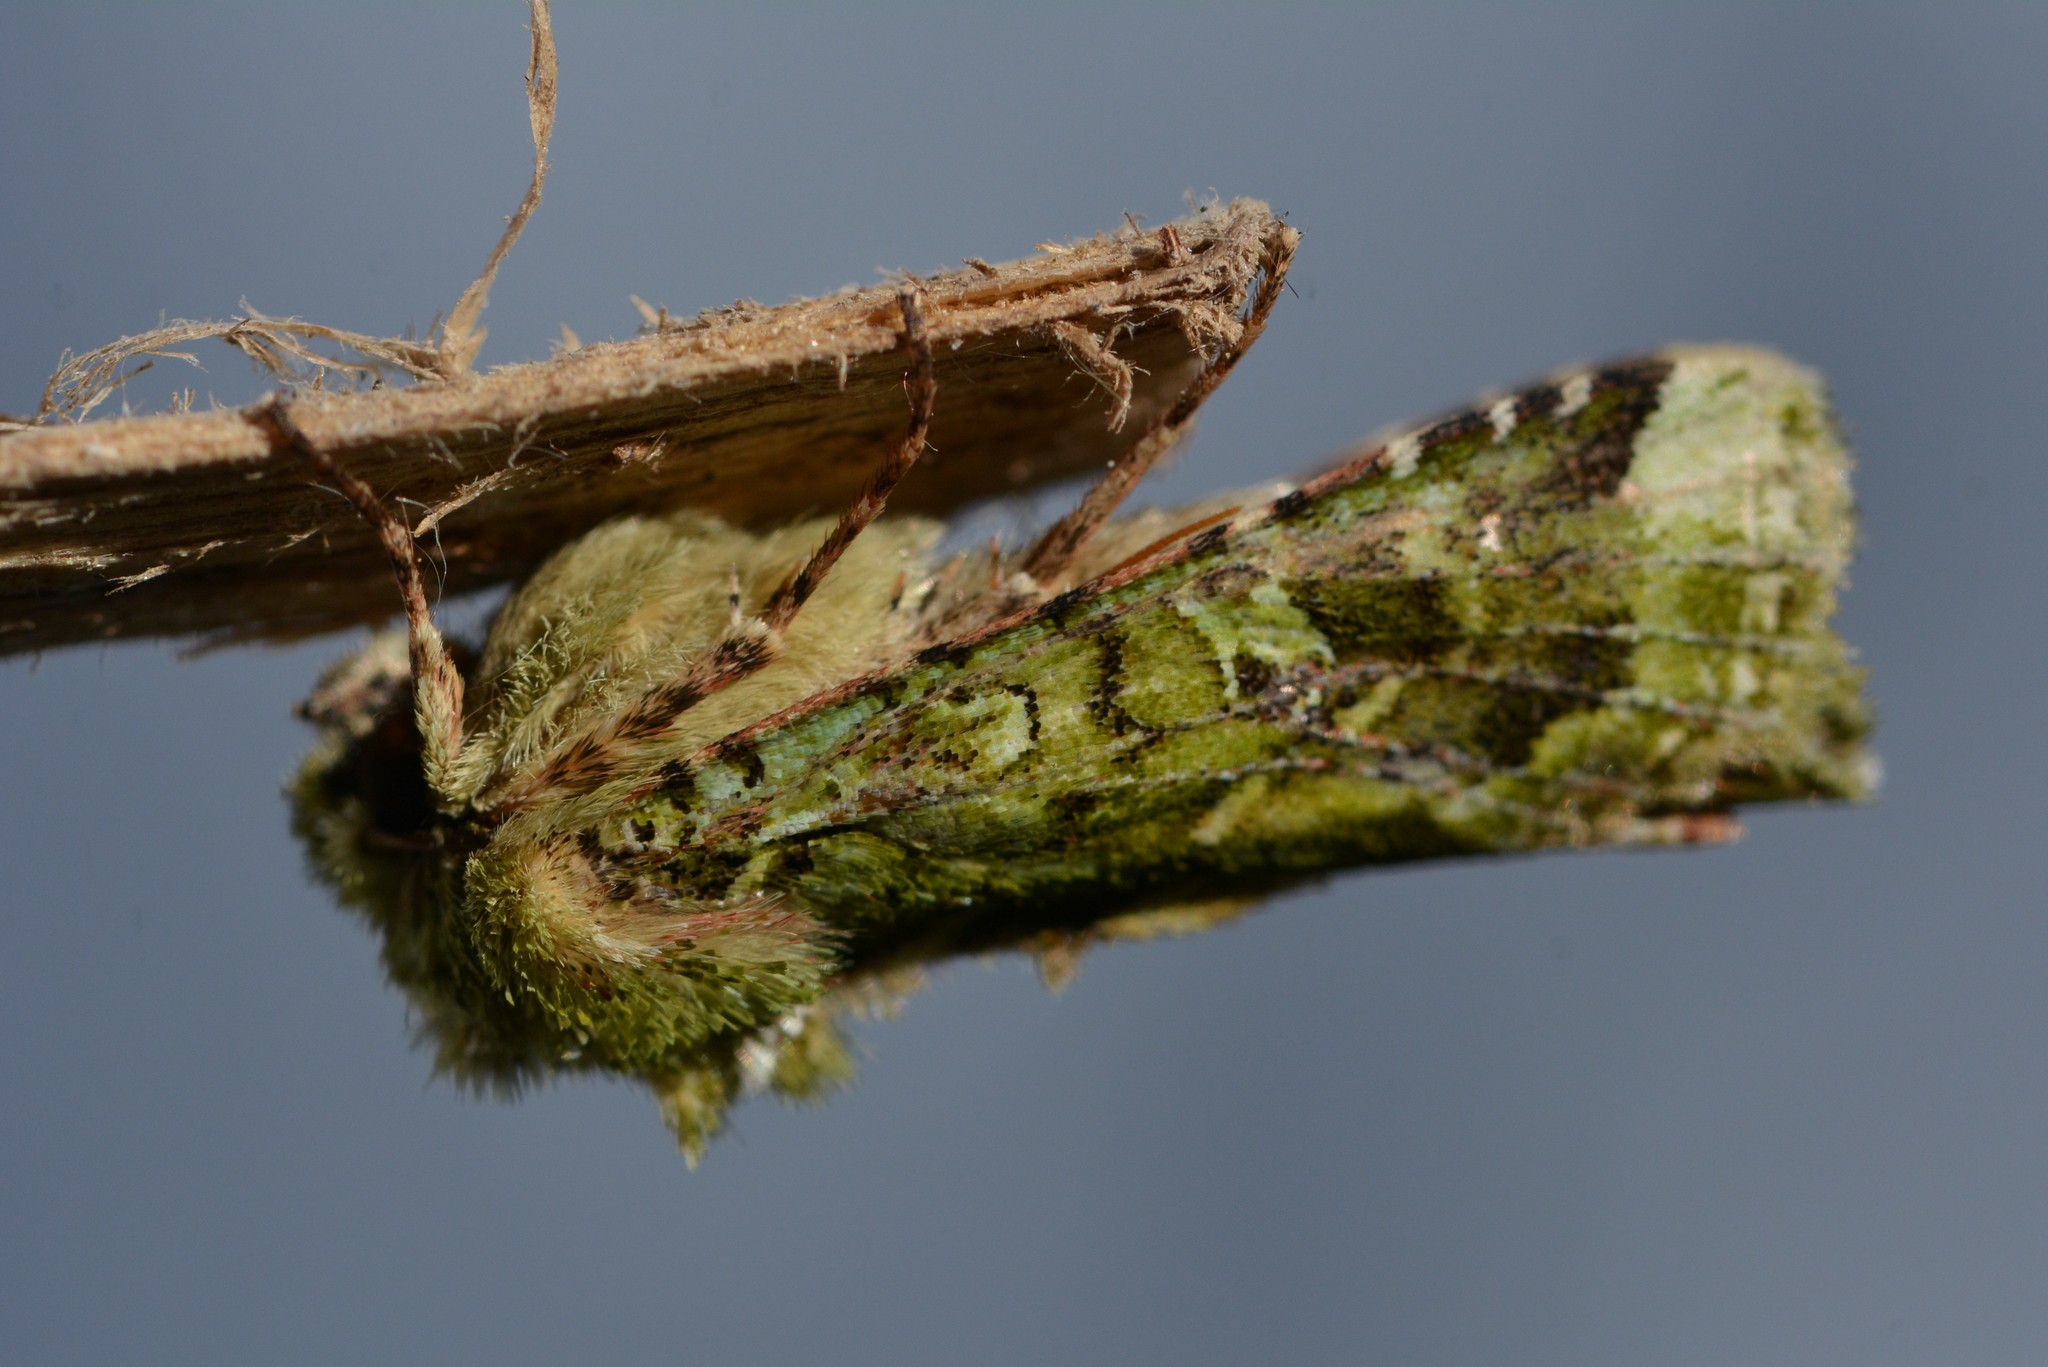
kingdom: Animalia
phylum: Arthropoda
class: Insecta
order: Lepidoptera
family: Noctuidae
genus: Feredayia
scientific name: Feredayia grammosa
